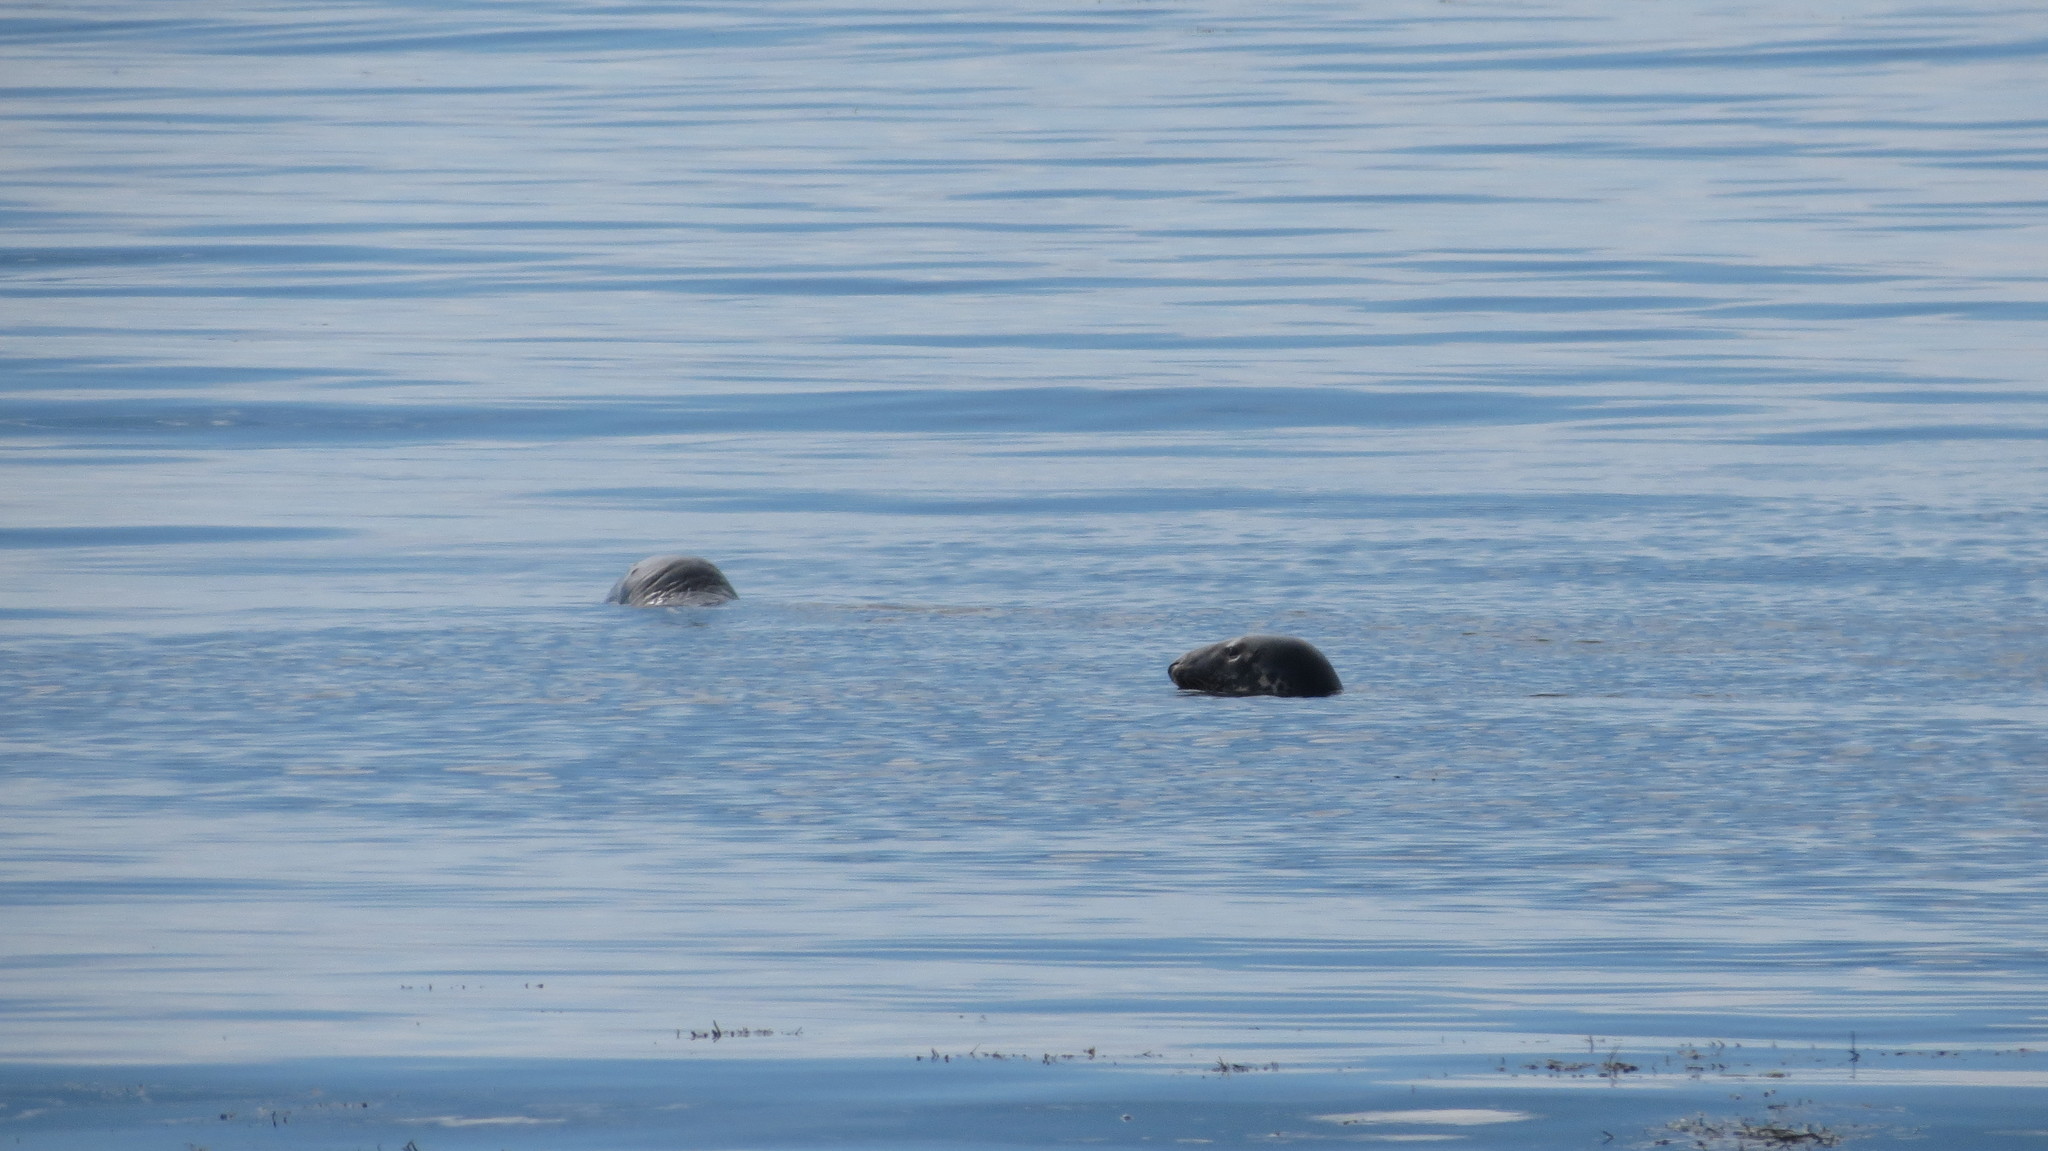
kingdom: Animalia
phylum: Chordata
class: Mammalia
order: Carnivora
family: Phocidae
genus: Halichoerus
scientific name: Halichoerus grypus
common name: Grey seal
